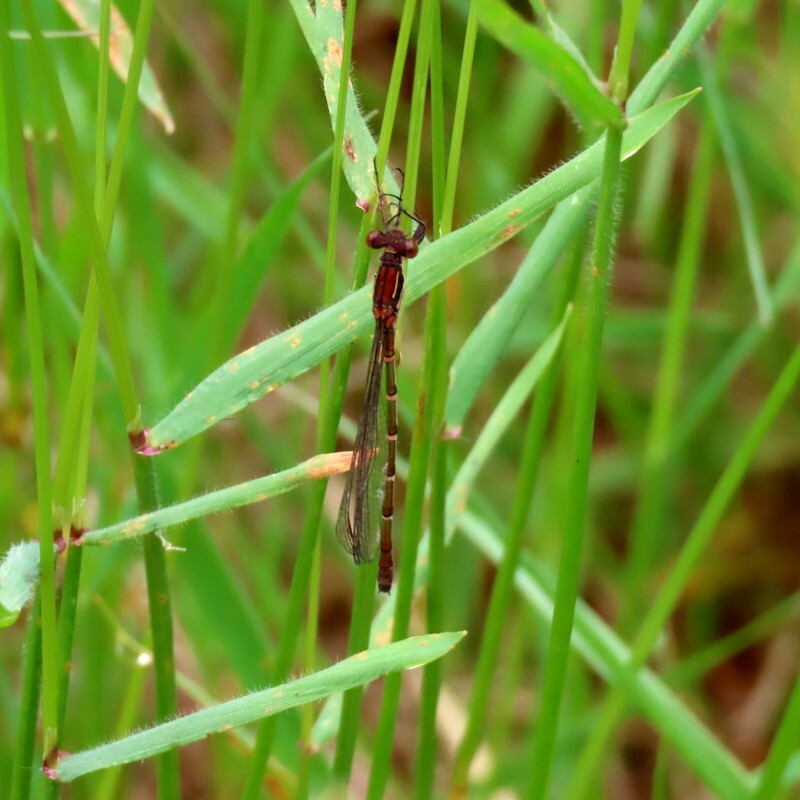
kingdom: Animalia
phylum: Arthropoda
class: Insecta
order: Odonata
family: Lestidae
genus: Austrolestes
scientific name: Austrolestes psyche
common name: Cup ringtail
